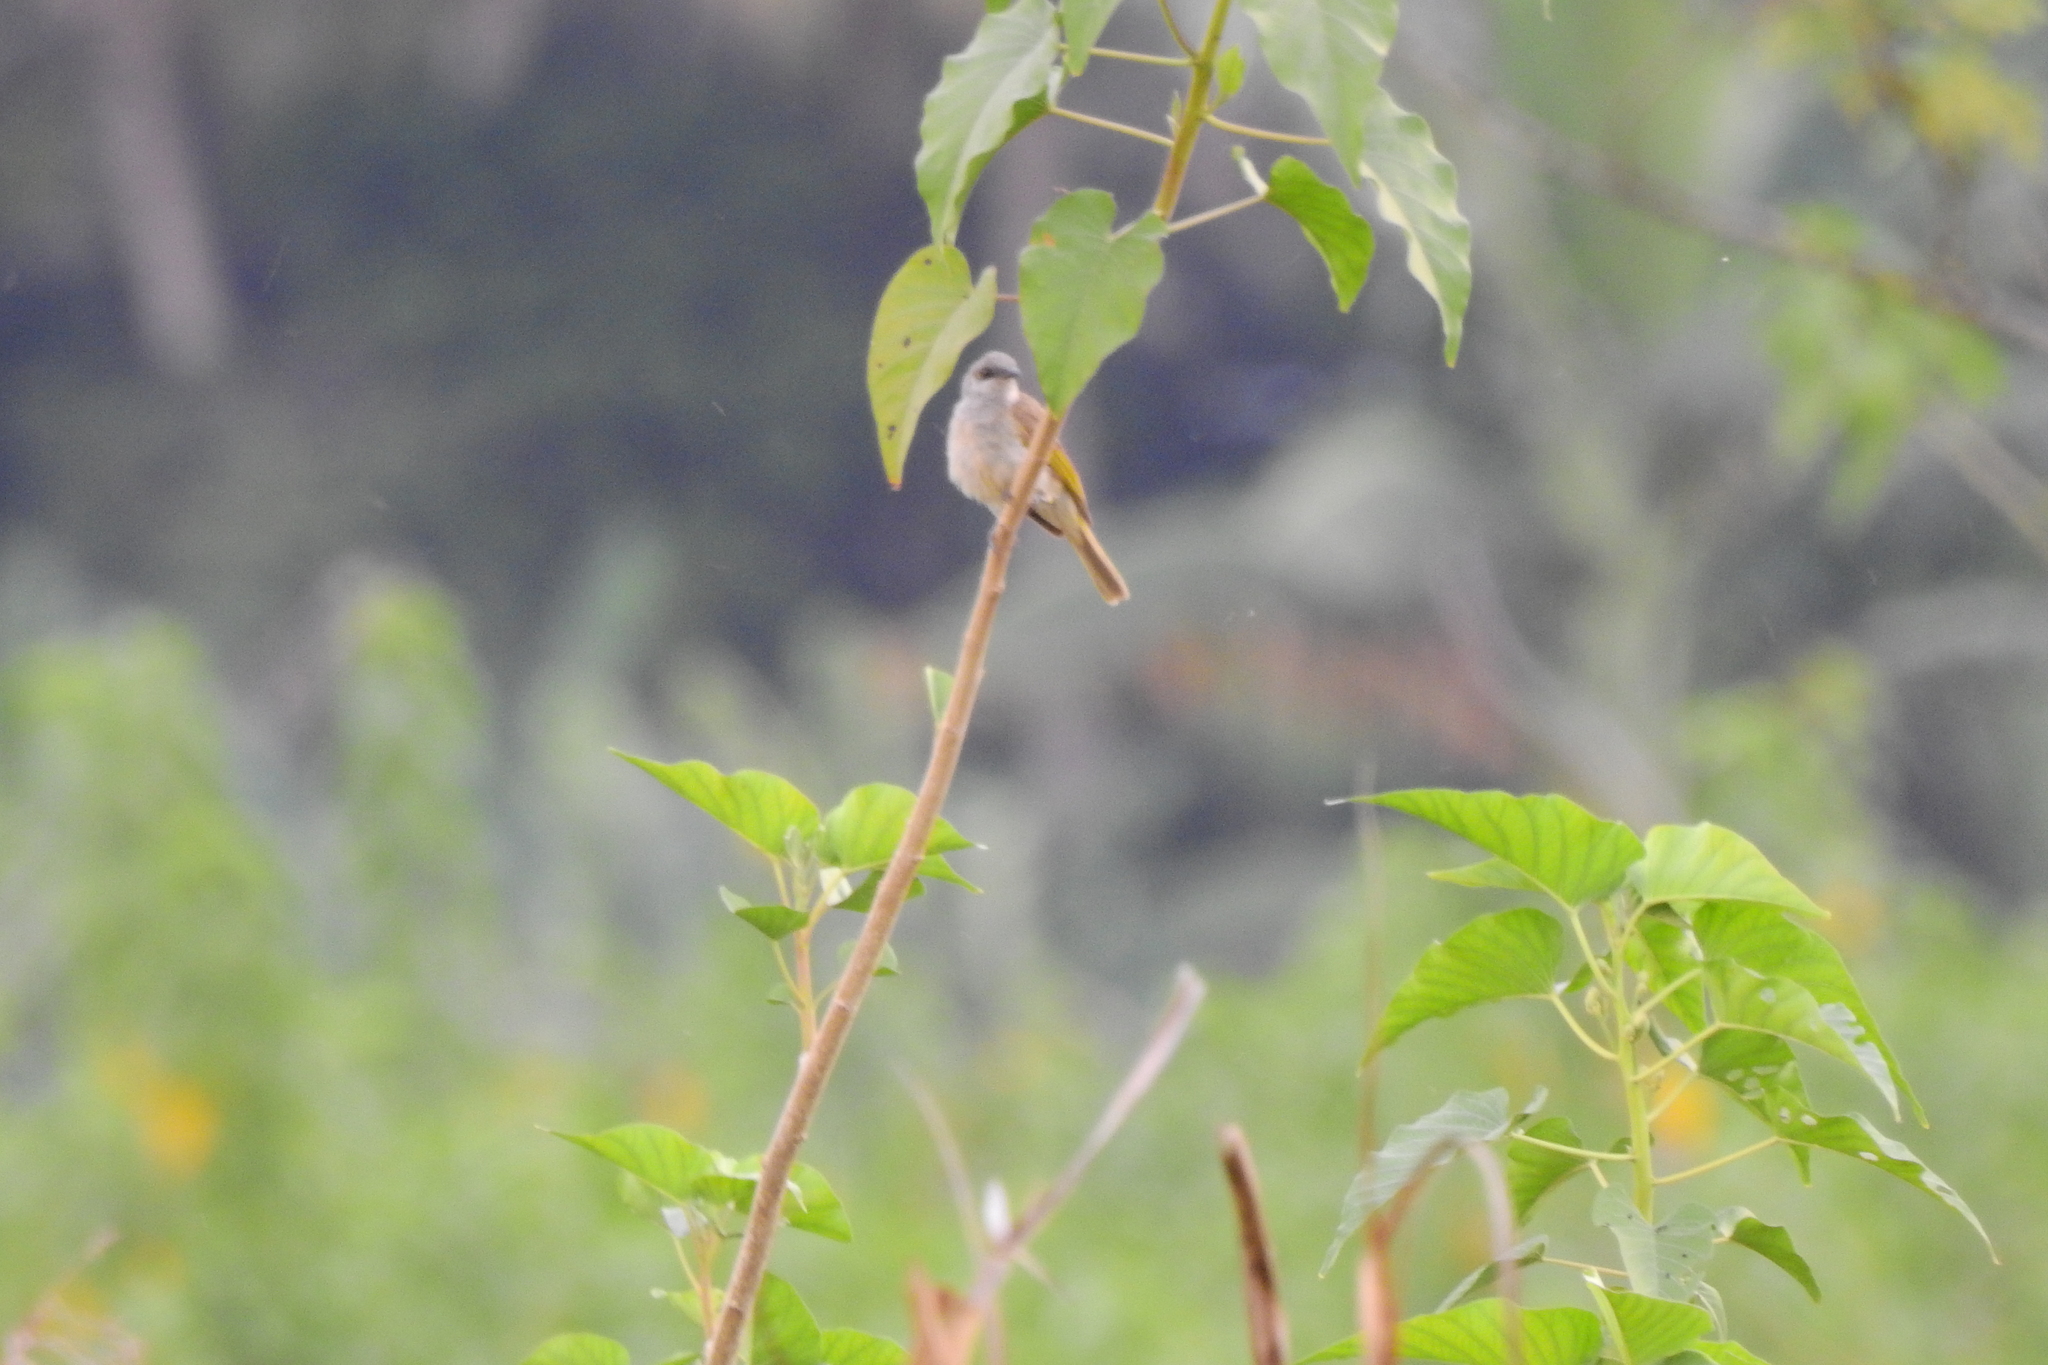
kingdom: Animalia
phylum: Chordata
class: Aves
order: Passeriformes
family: Meliphagidae
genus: Lichmera
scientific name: Lichmera indistincta
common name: Brown honeyeater
